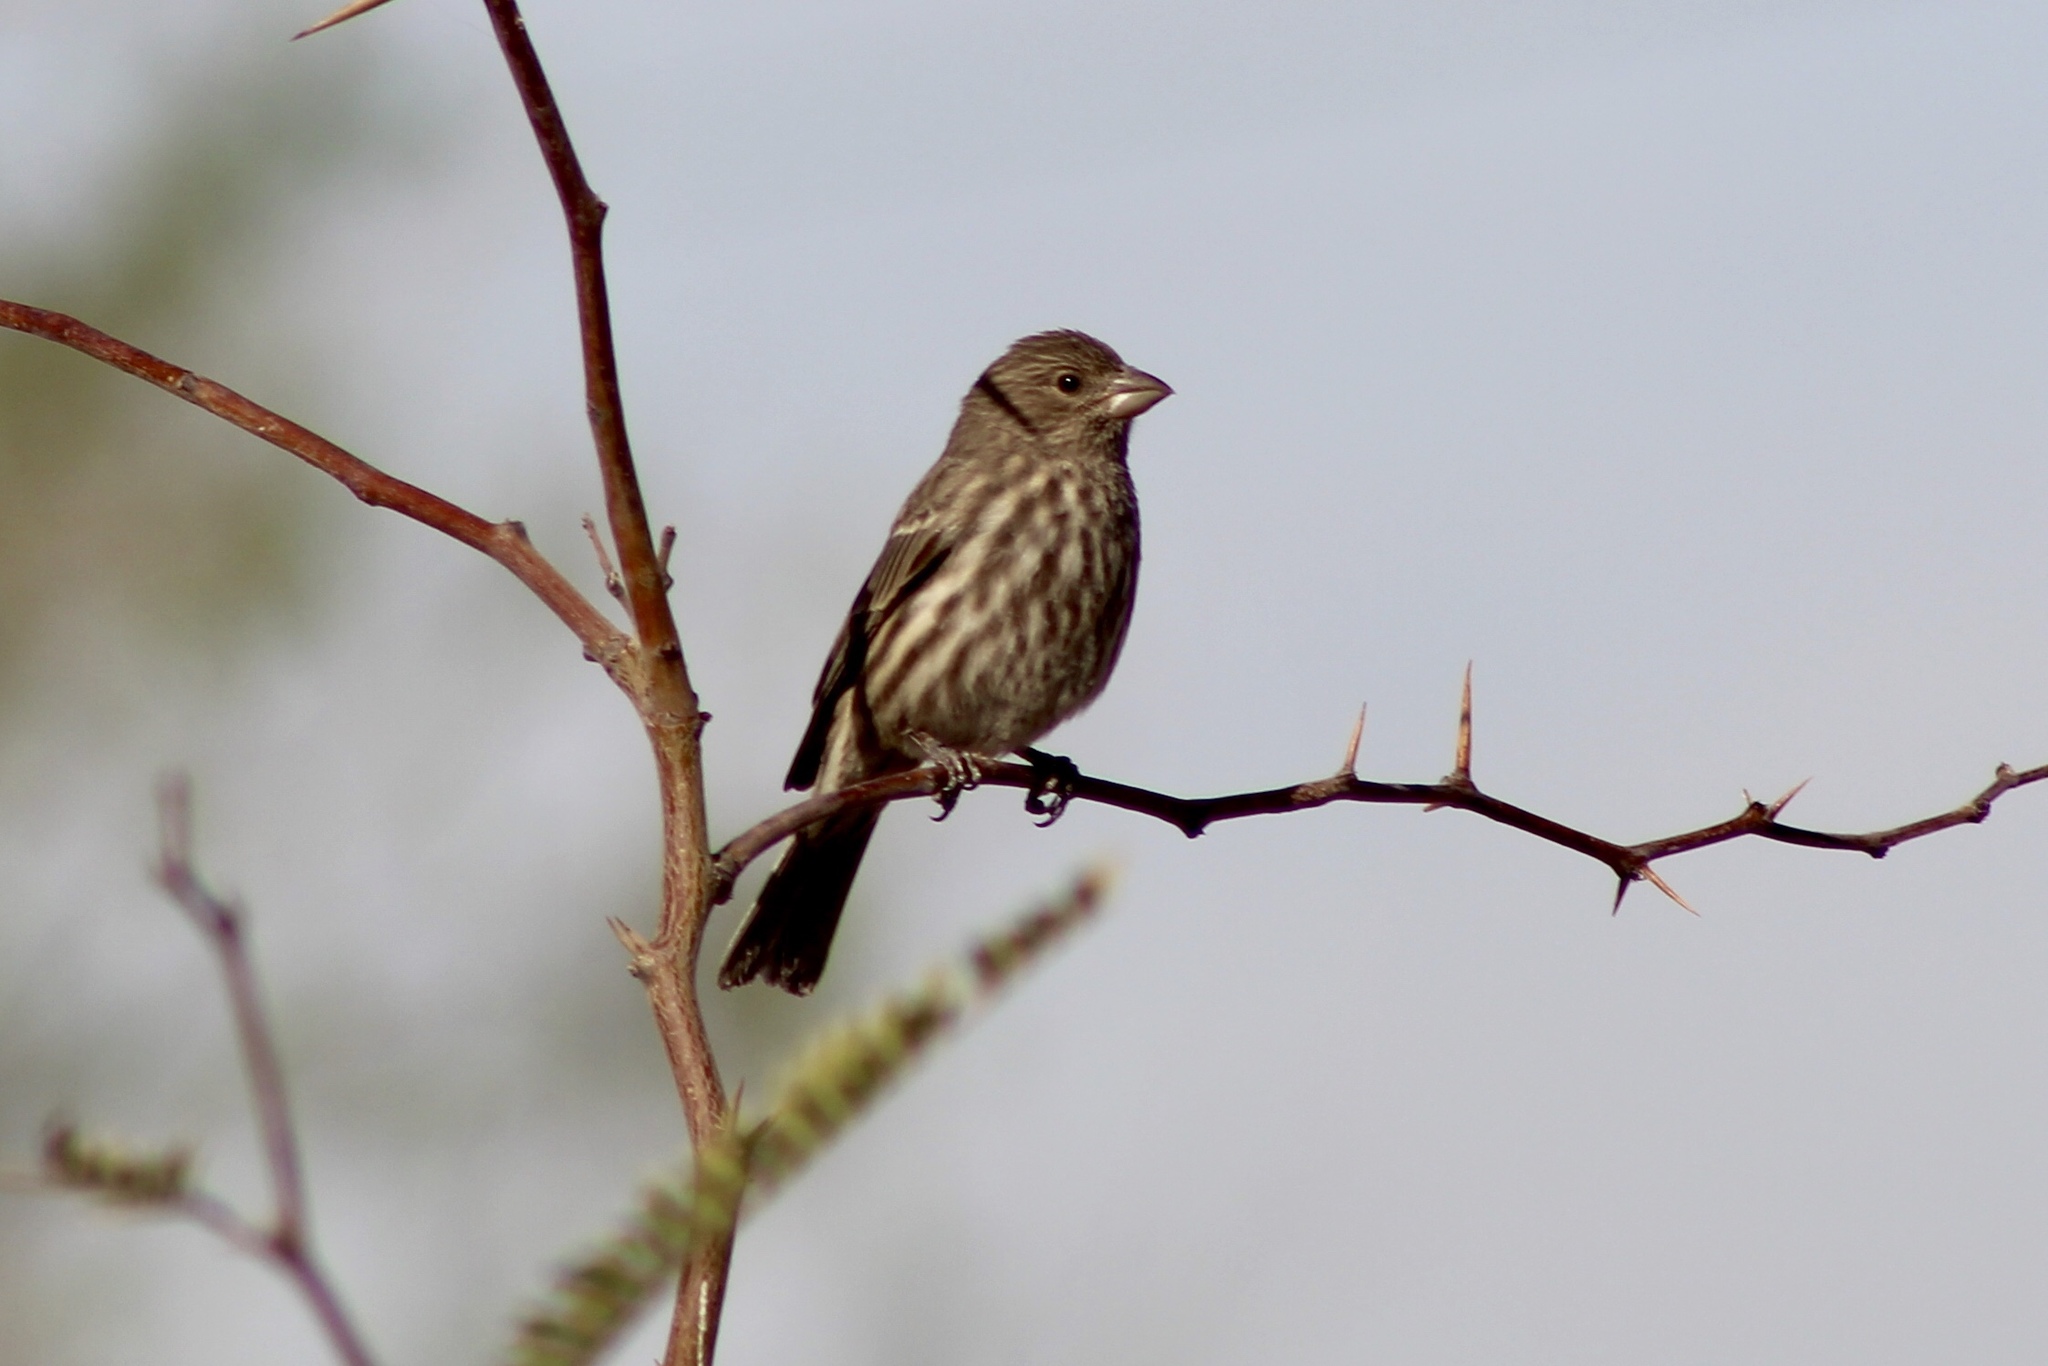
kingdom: Animalia
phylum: Chordata
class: Aves
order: Passeriformes
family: Fringillidae
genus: Haemorhous
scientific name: Haemorhous mexicanus
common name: House finch
